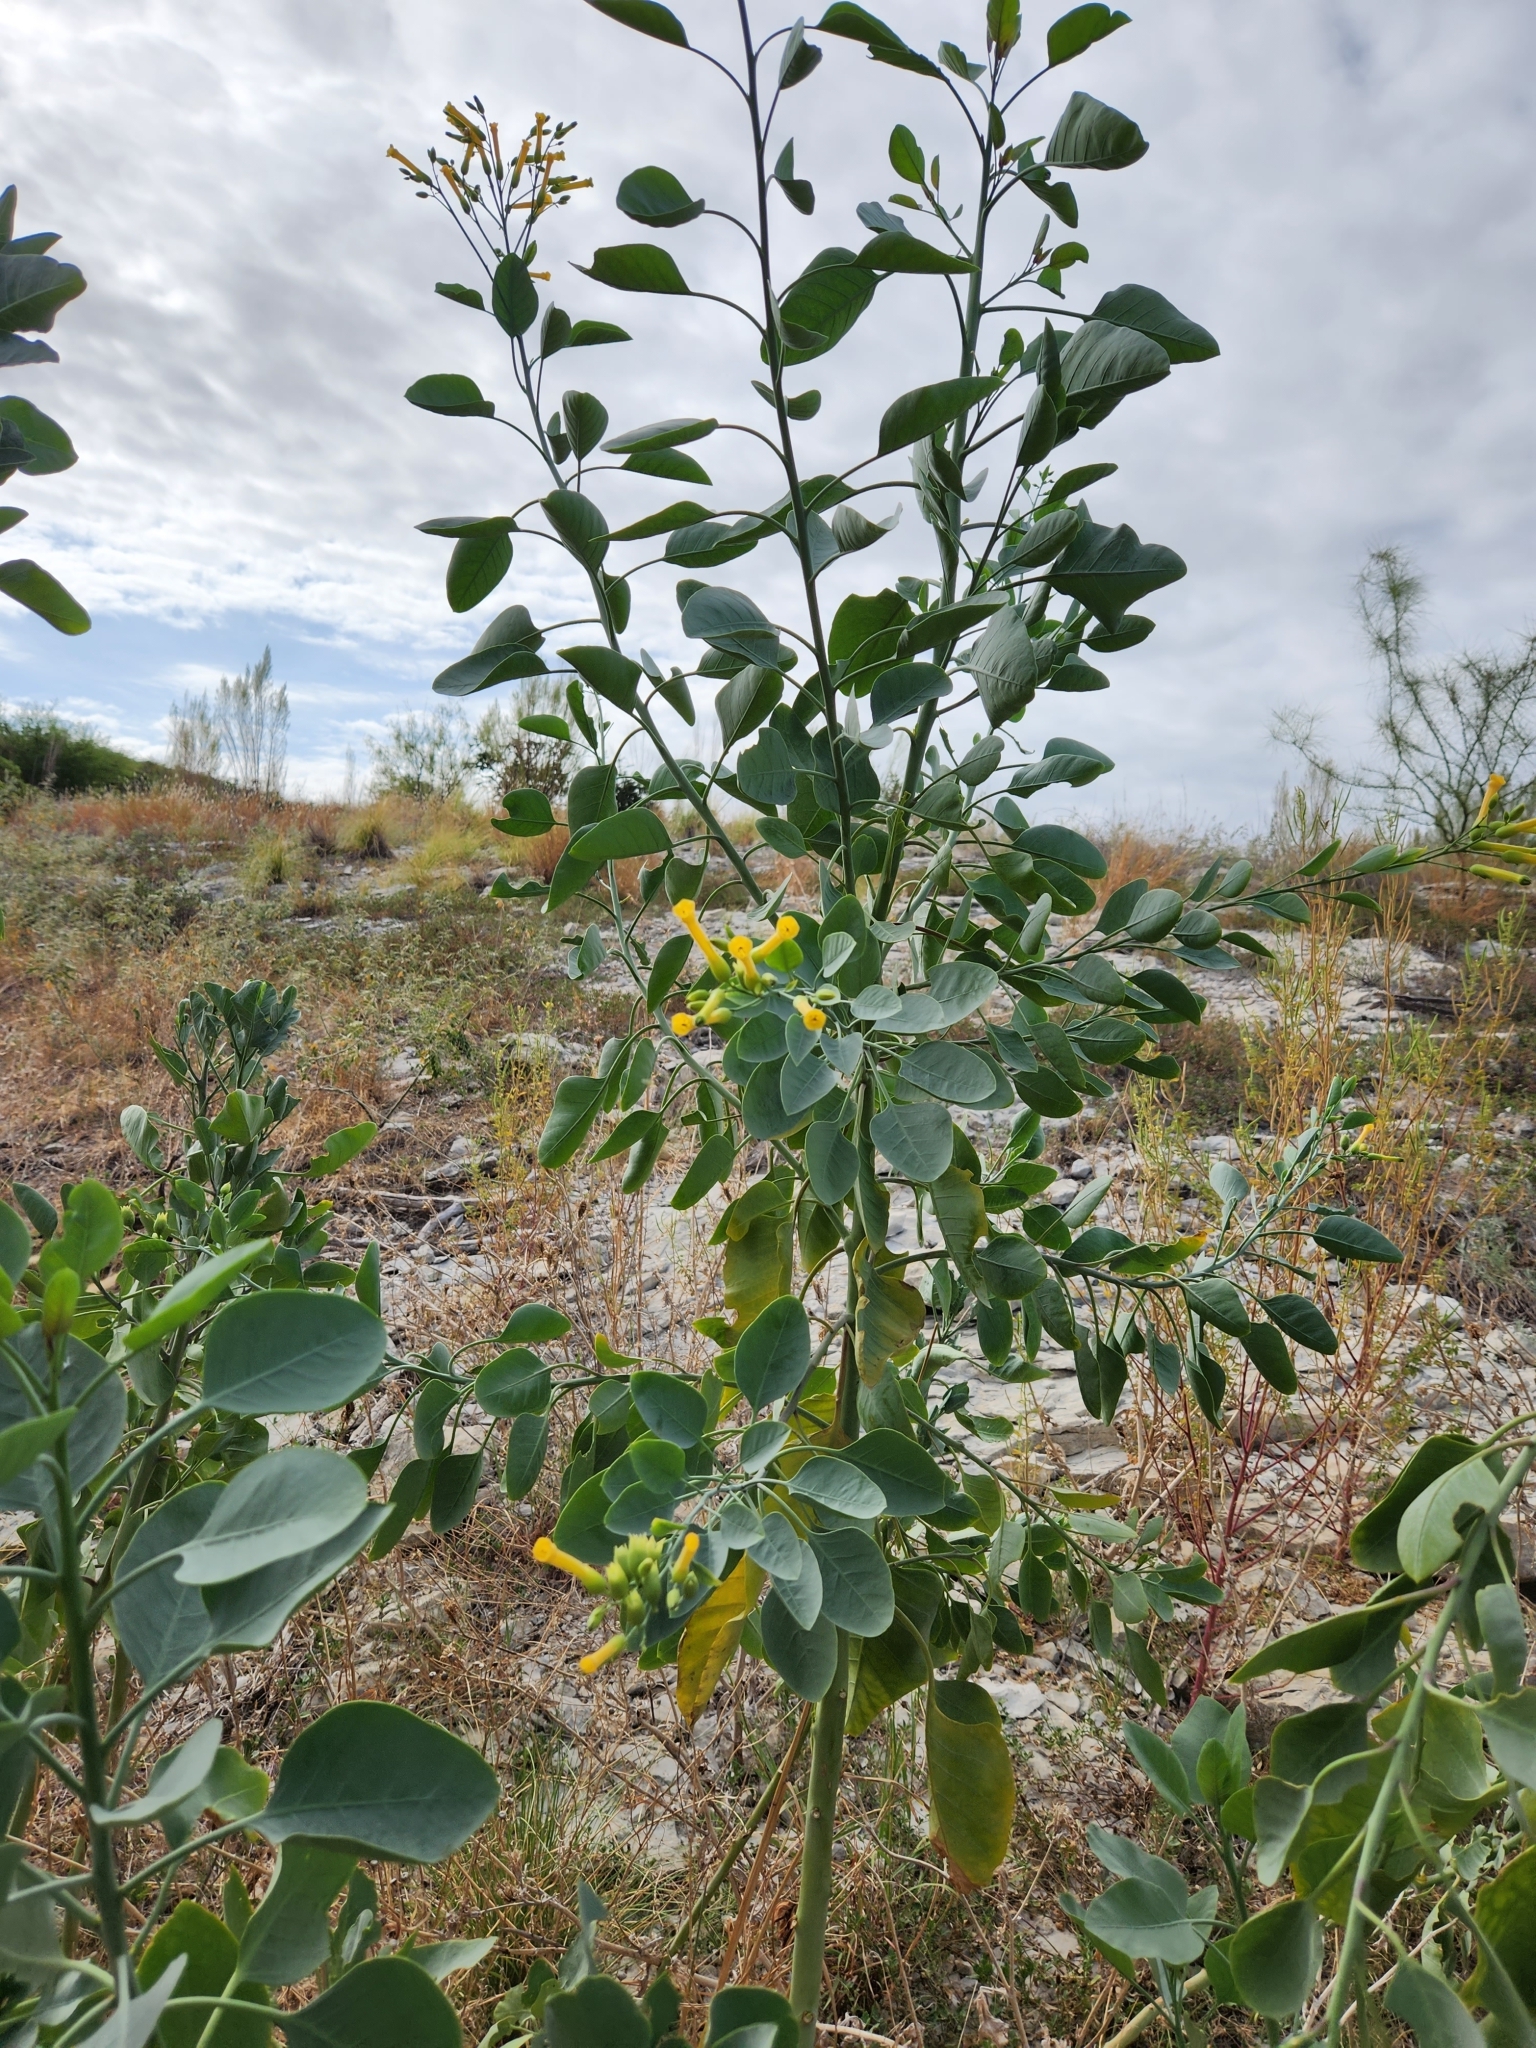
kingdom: Plantae
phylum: Tracheophyta
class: Magnoliopsida
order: Solanales
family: Solanaceae
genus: Nicotiana
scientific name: Nicotiana glauca
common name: Tree tobacco
